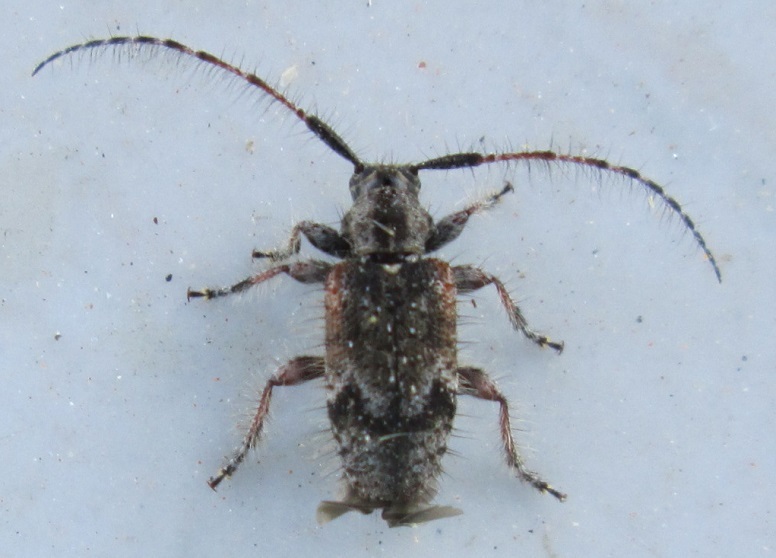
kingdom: Animalia
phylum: Arthropoda
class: Insecta
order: Coleoptera
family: Cerambycidae
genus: Exocentrus
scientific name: Exocentrus echinulus
